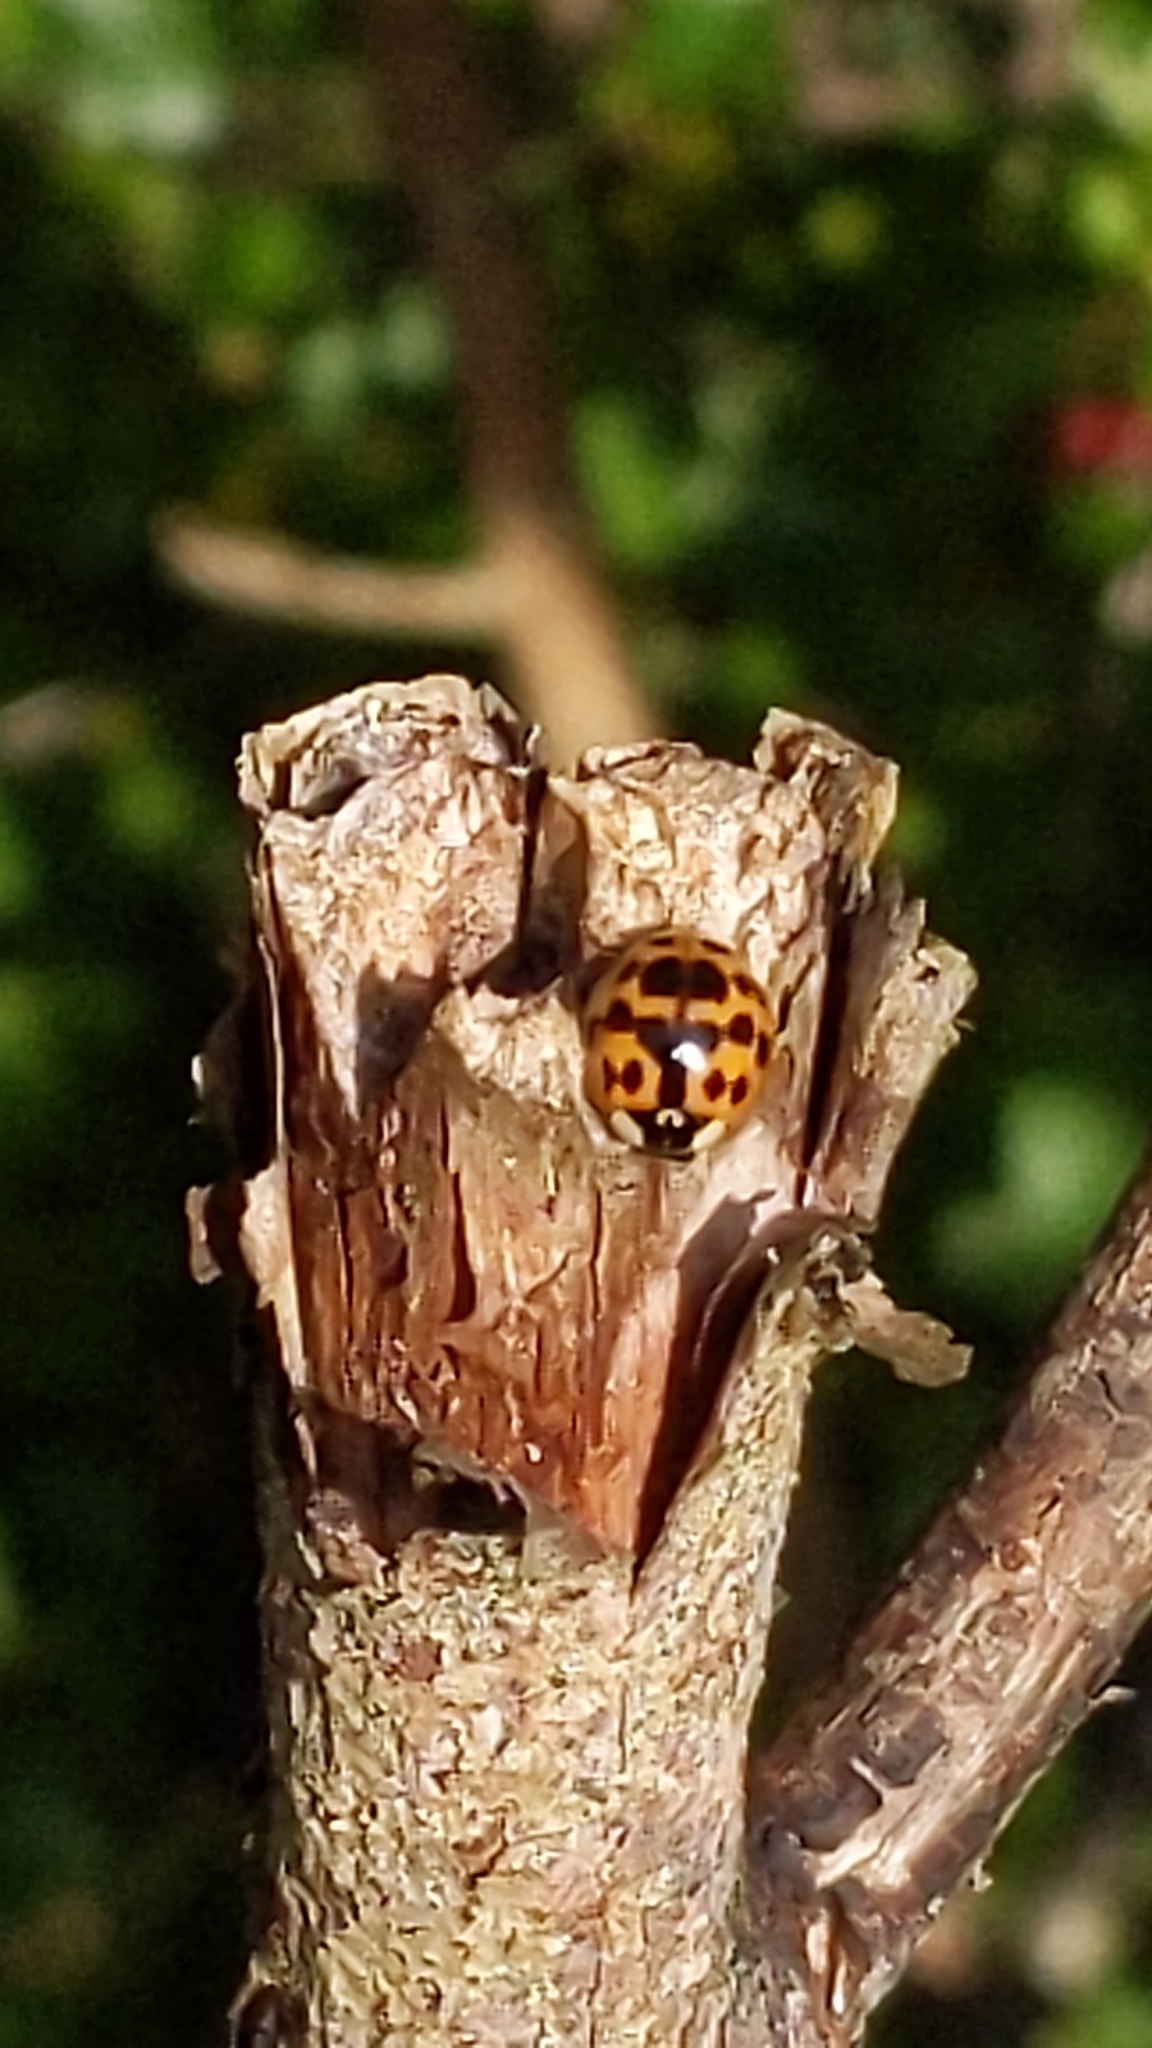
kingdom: Animalia
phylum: Arthropoda
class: Insecta
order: Coleoptera
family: Coccinellidae
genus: Harmonia
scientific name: Harmonia axyridis
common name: Harlequin ladybird
